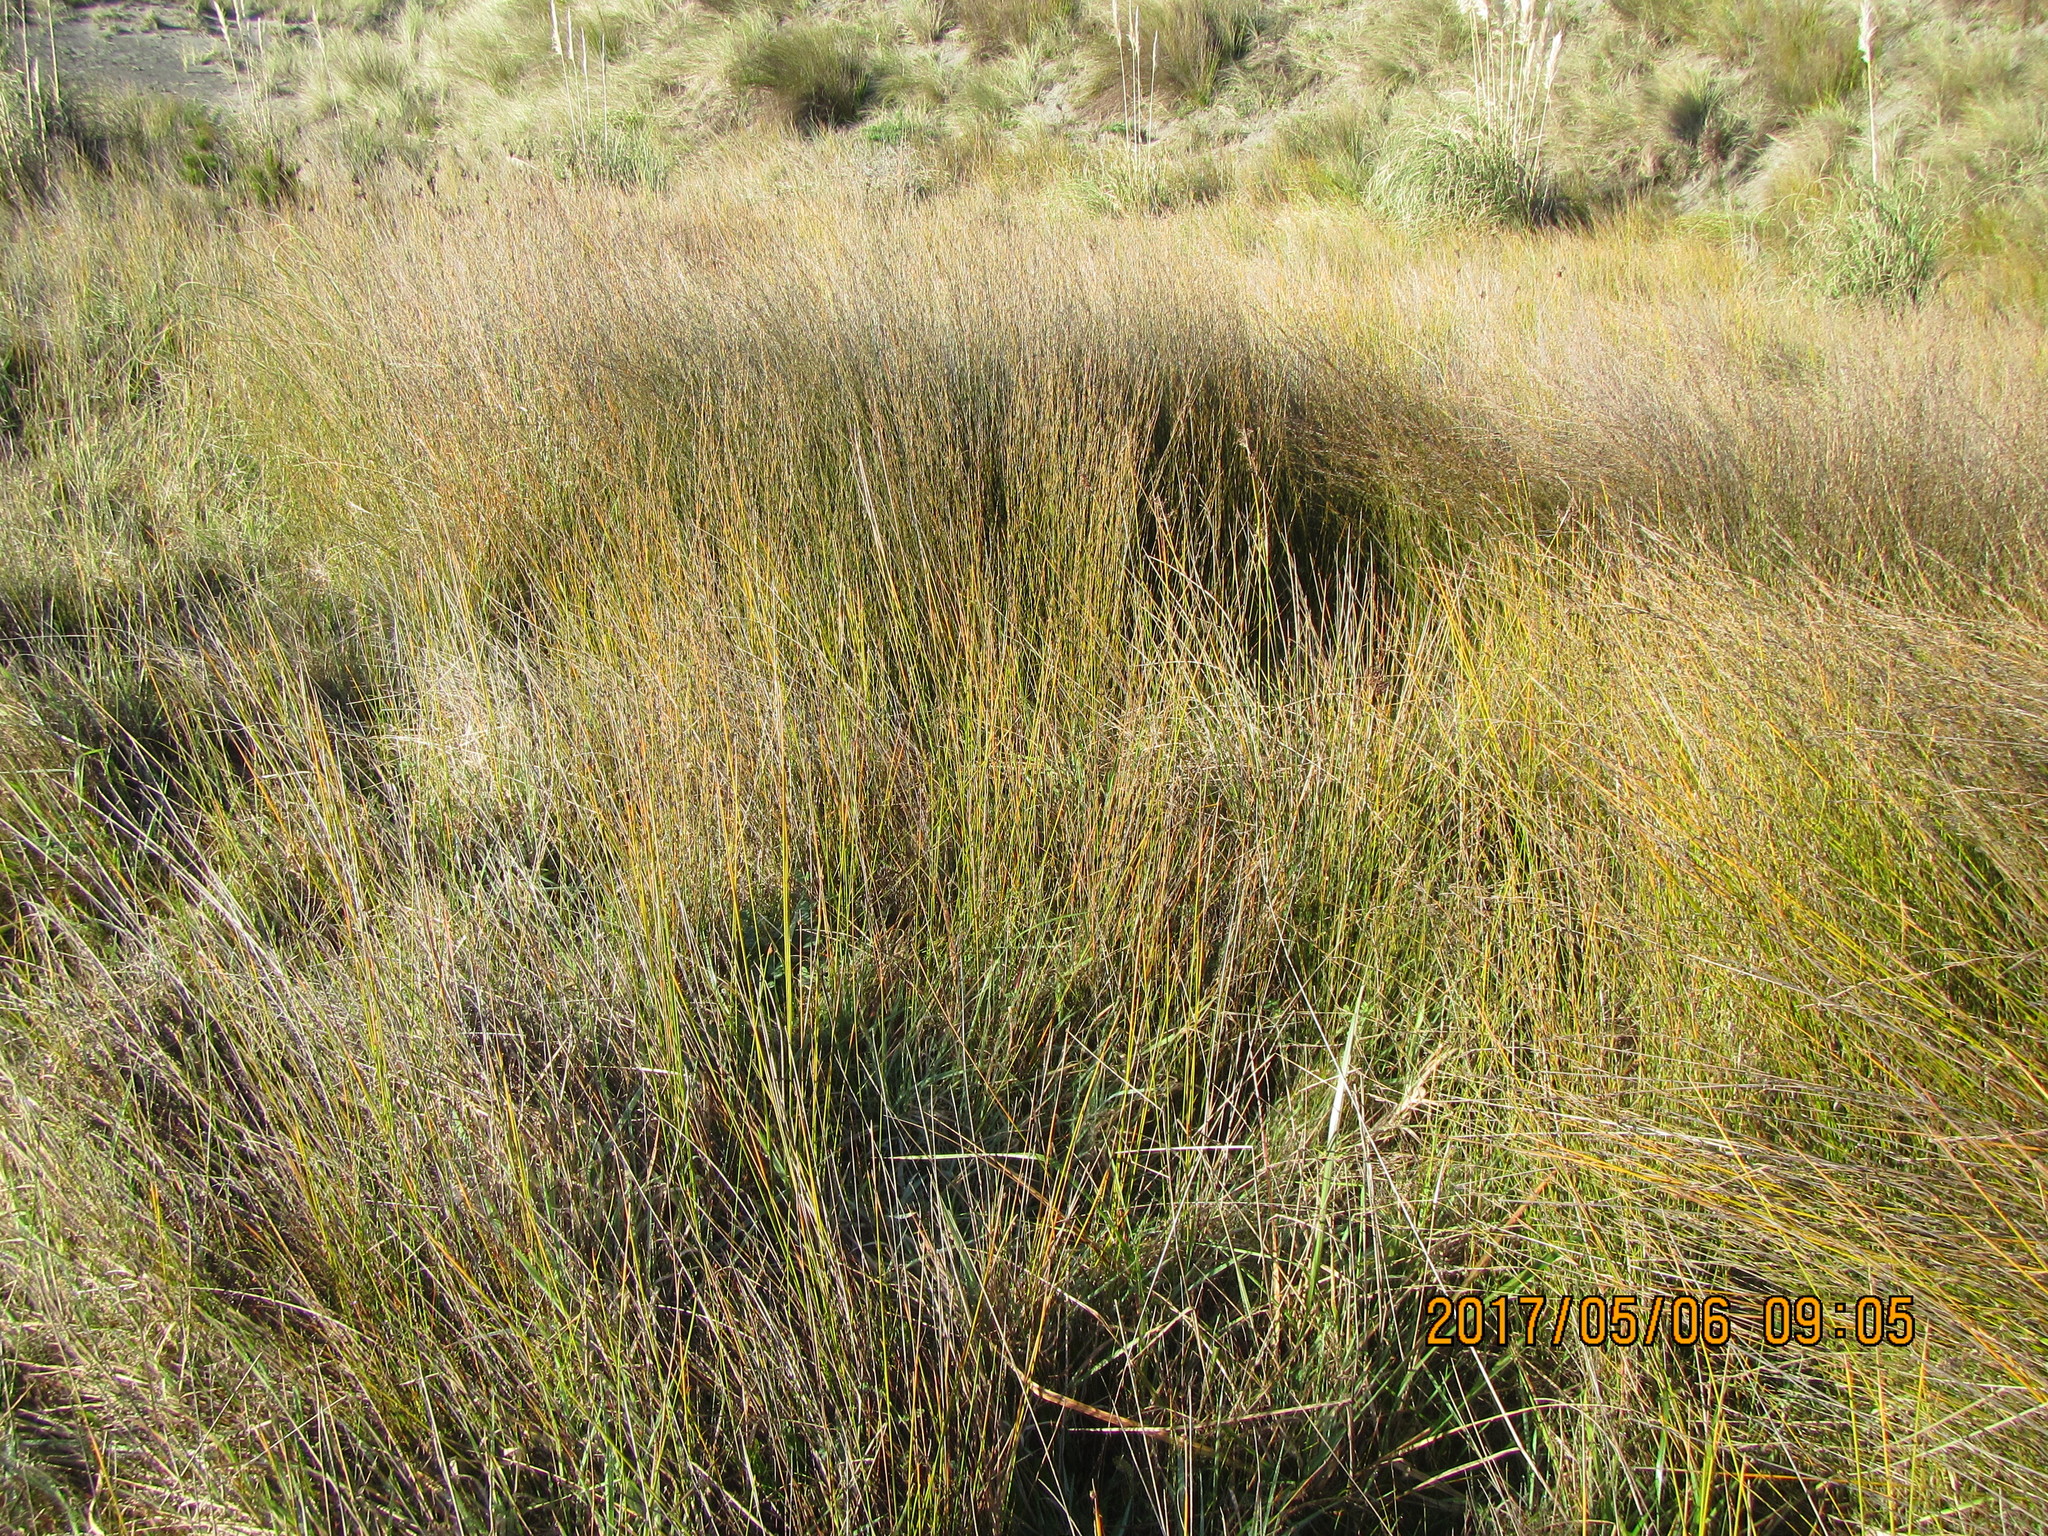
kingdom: Plantae
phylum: Tracheophyta
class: Liliopsida
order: Poales
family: Restionaceae
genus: Apodasmia
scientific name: Apodasmia similis
